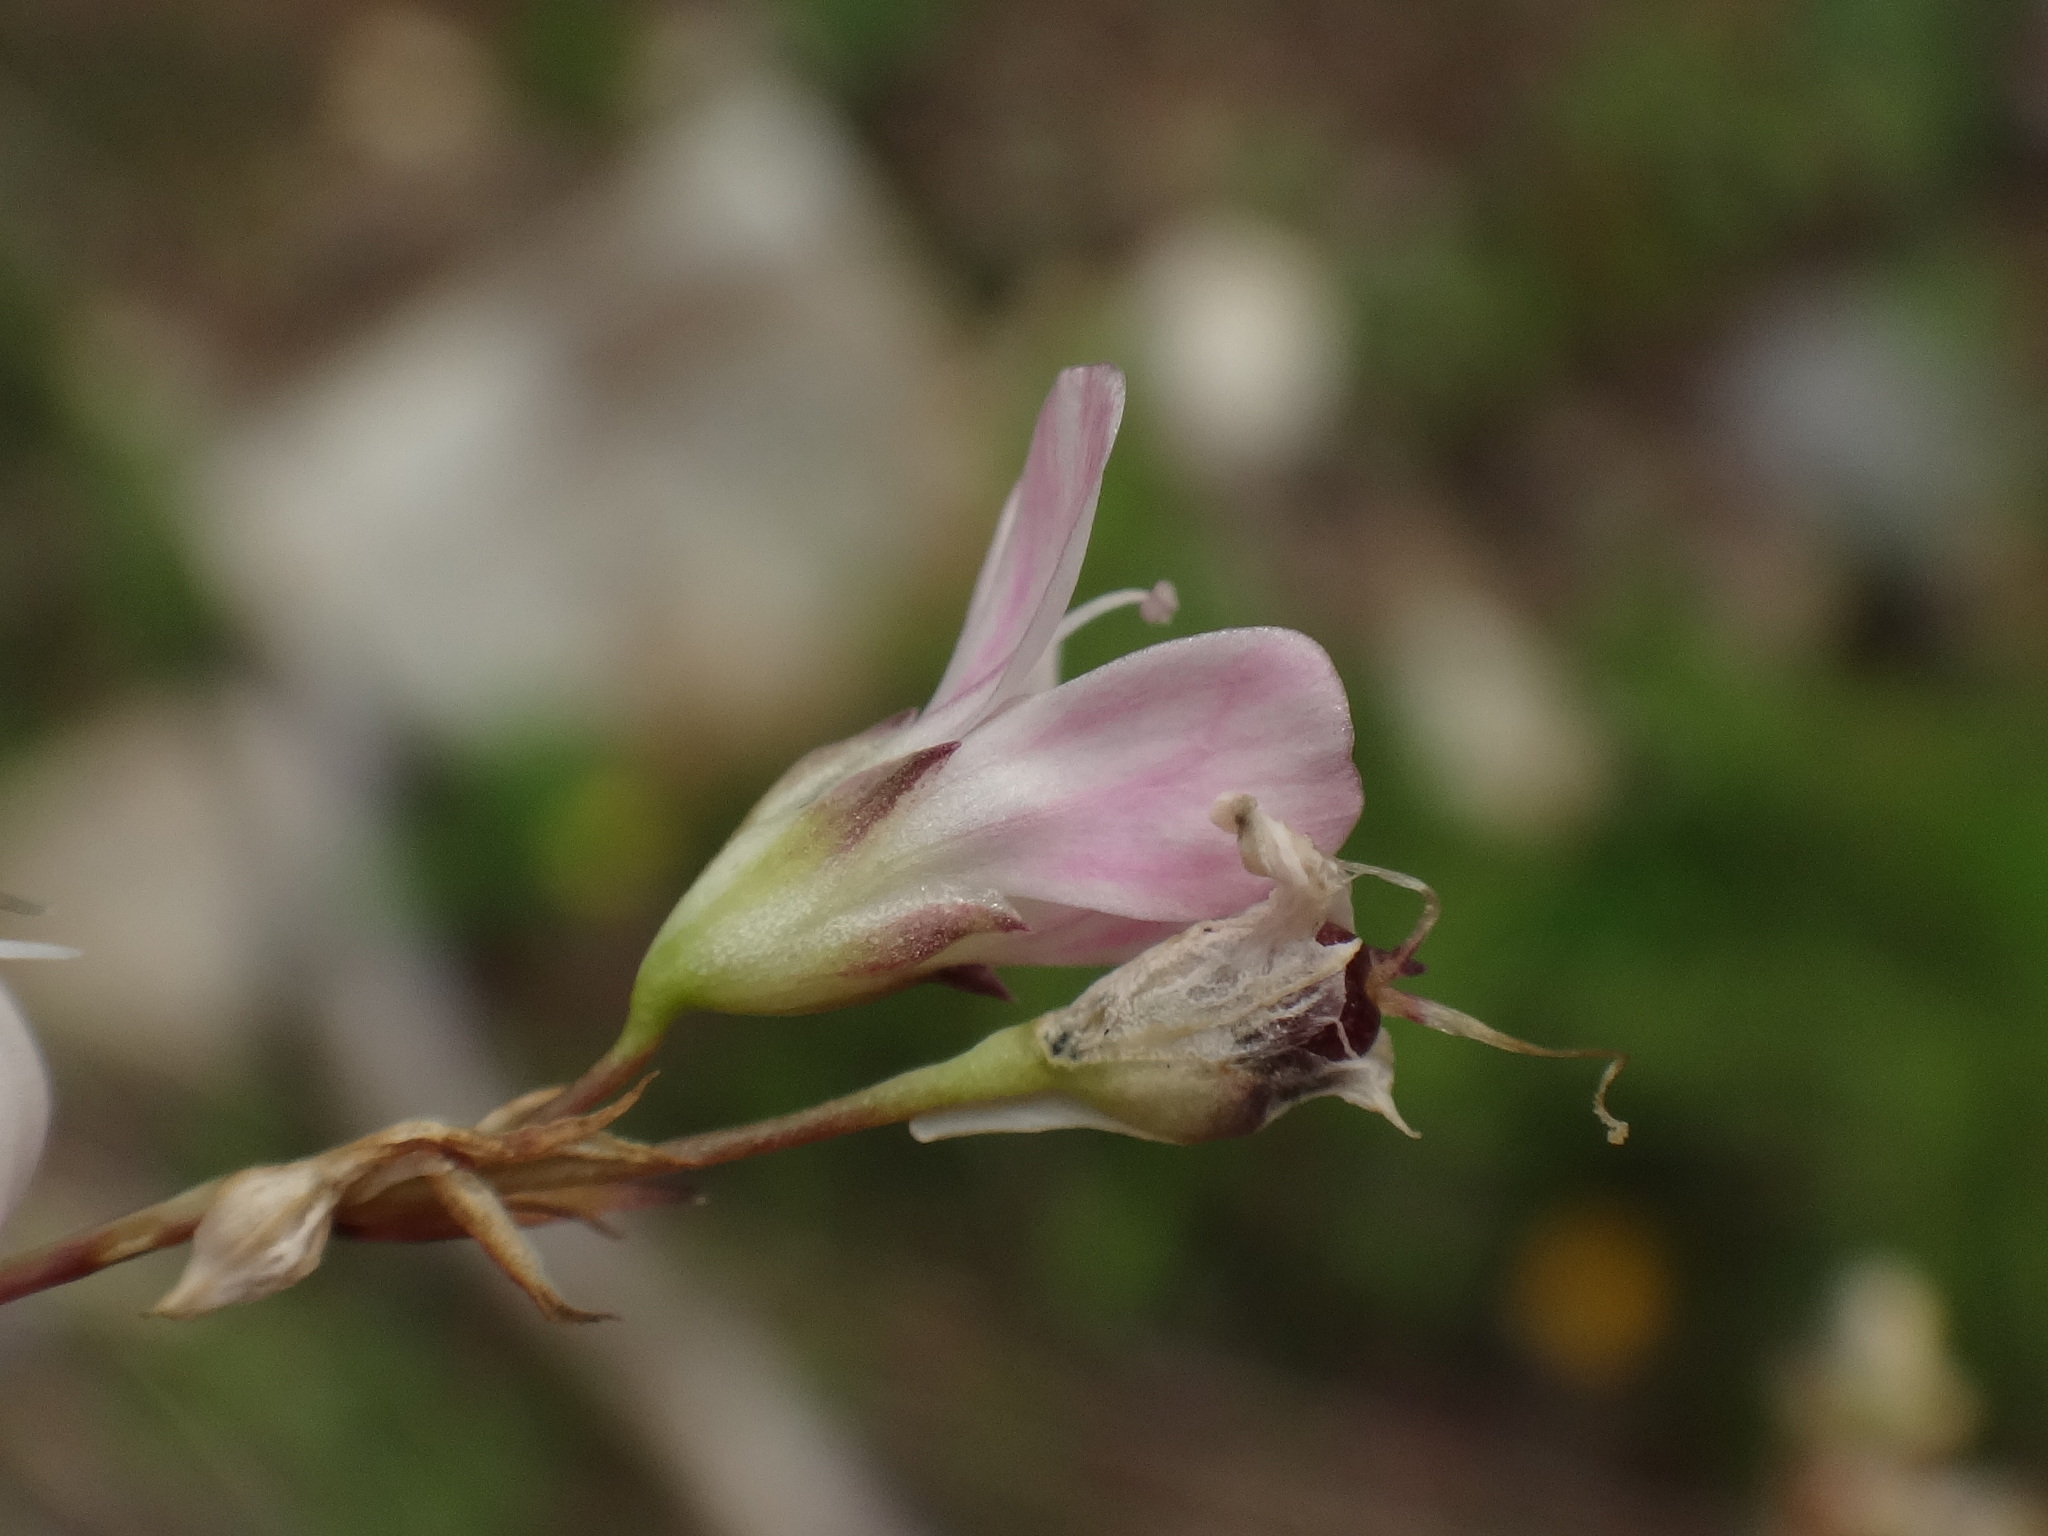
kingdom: Plantae
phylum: Tracheophyta
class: Magnoliopsida
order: Caryophyllales
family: Caryophyllaceae
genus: Gypsophila
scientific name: Gypsophila repens
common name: Creeping baby's-breath
